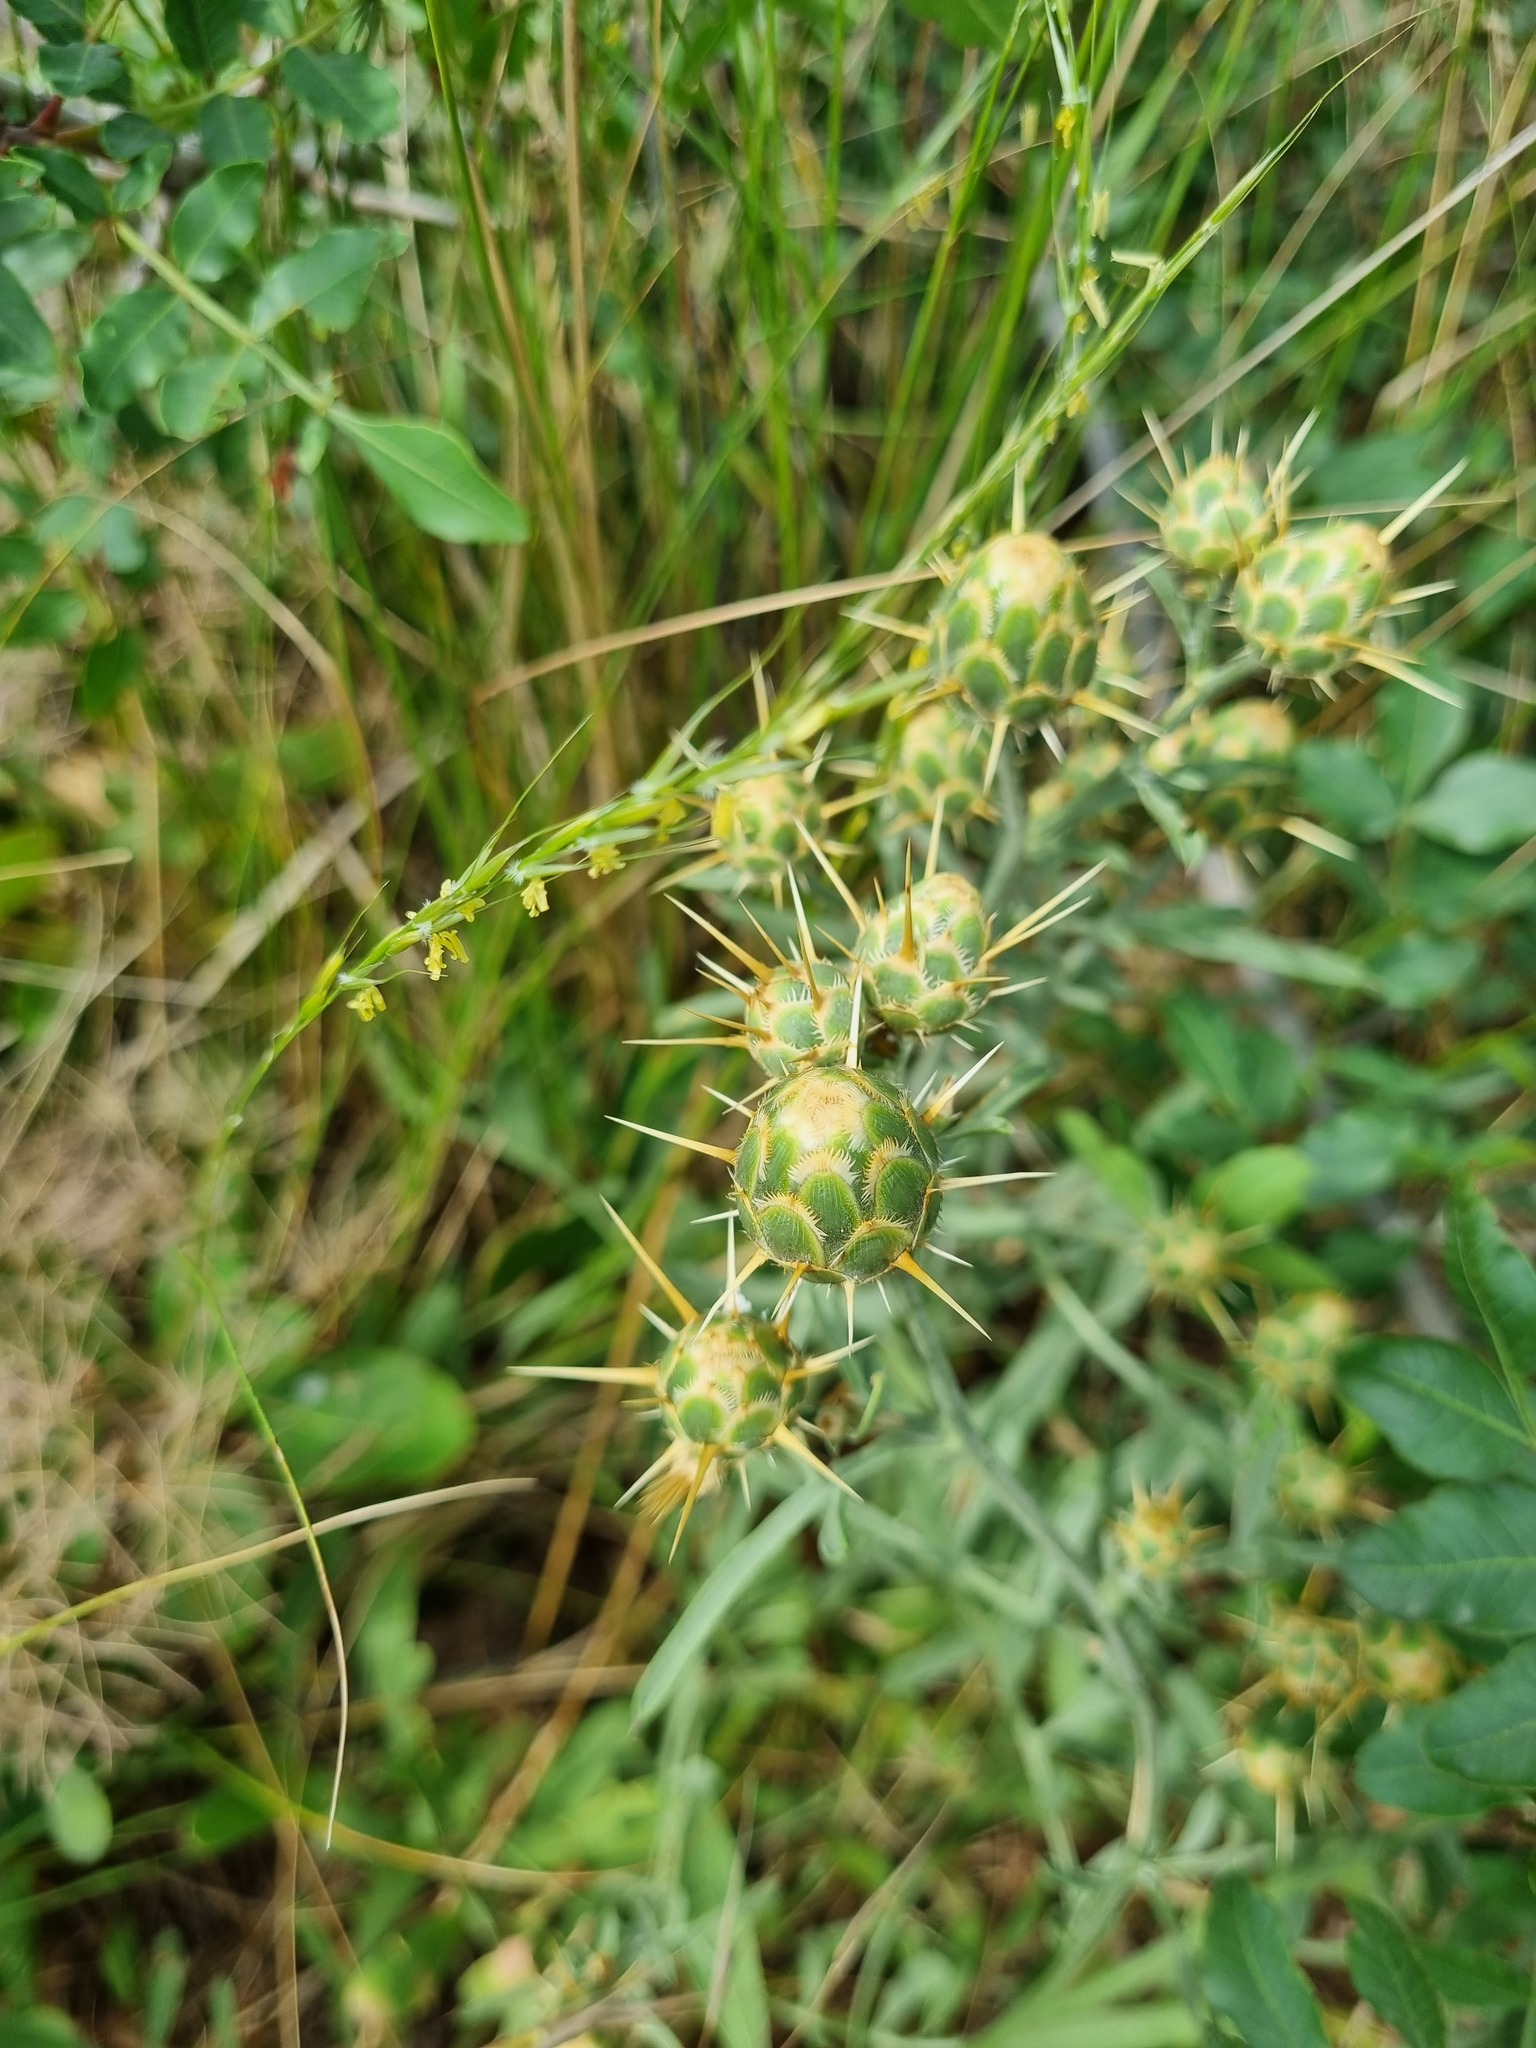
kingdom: Plantae
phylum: Tracheophyta
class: Magnoliopsida
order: Asterales
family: Asteraceae
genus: Centaurea
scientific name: Centaurea salonitana
